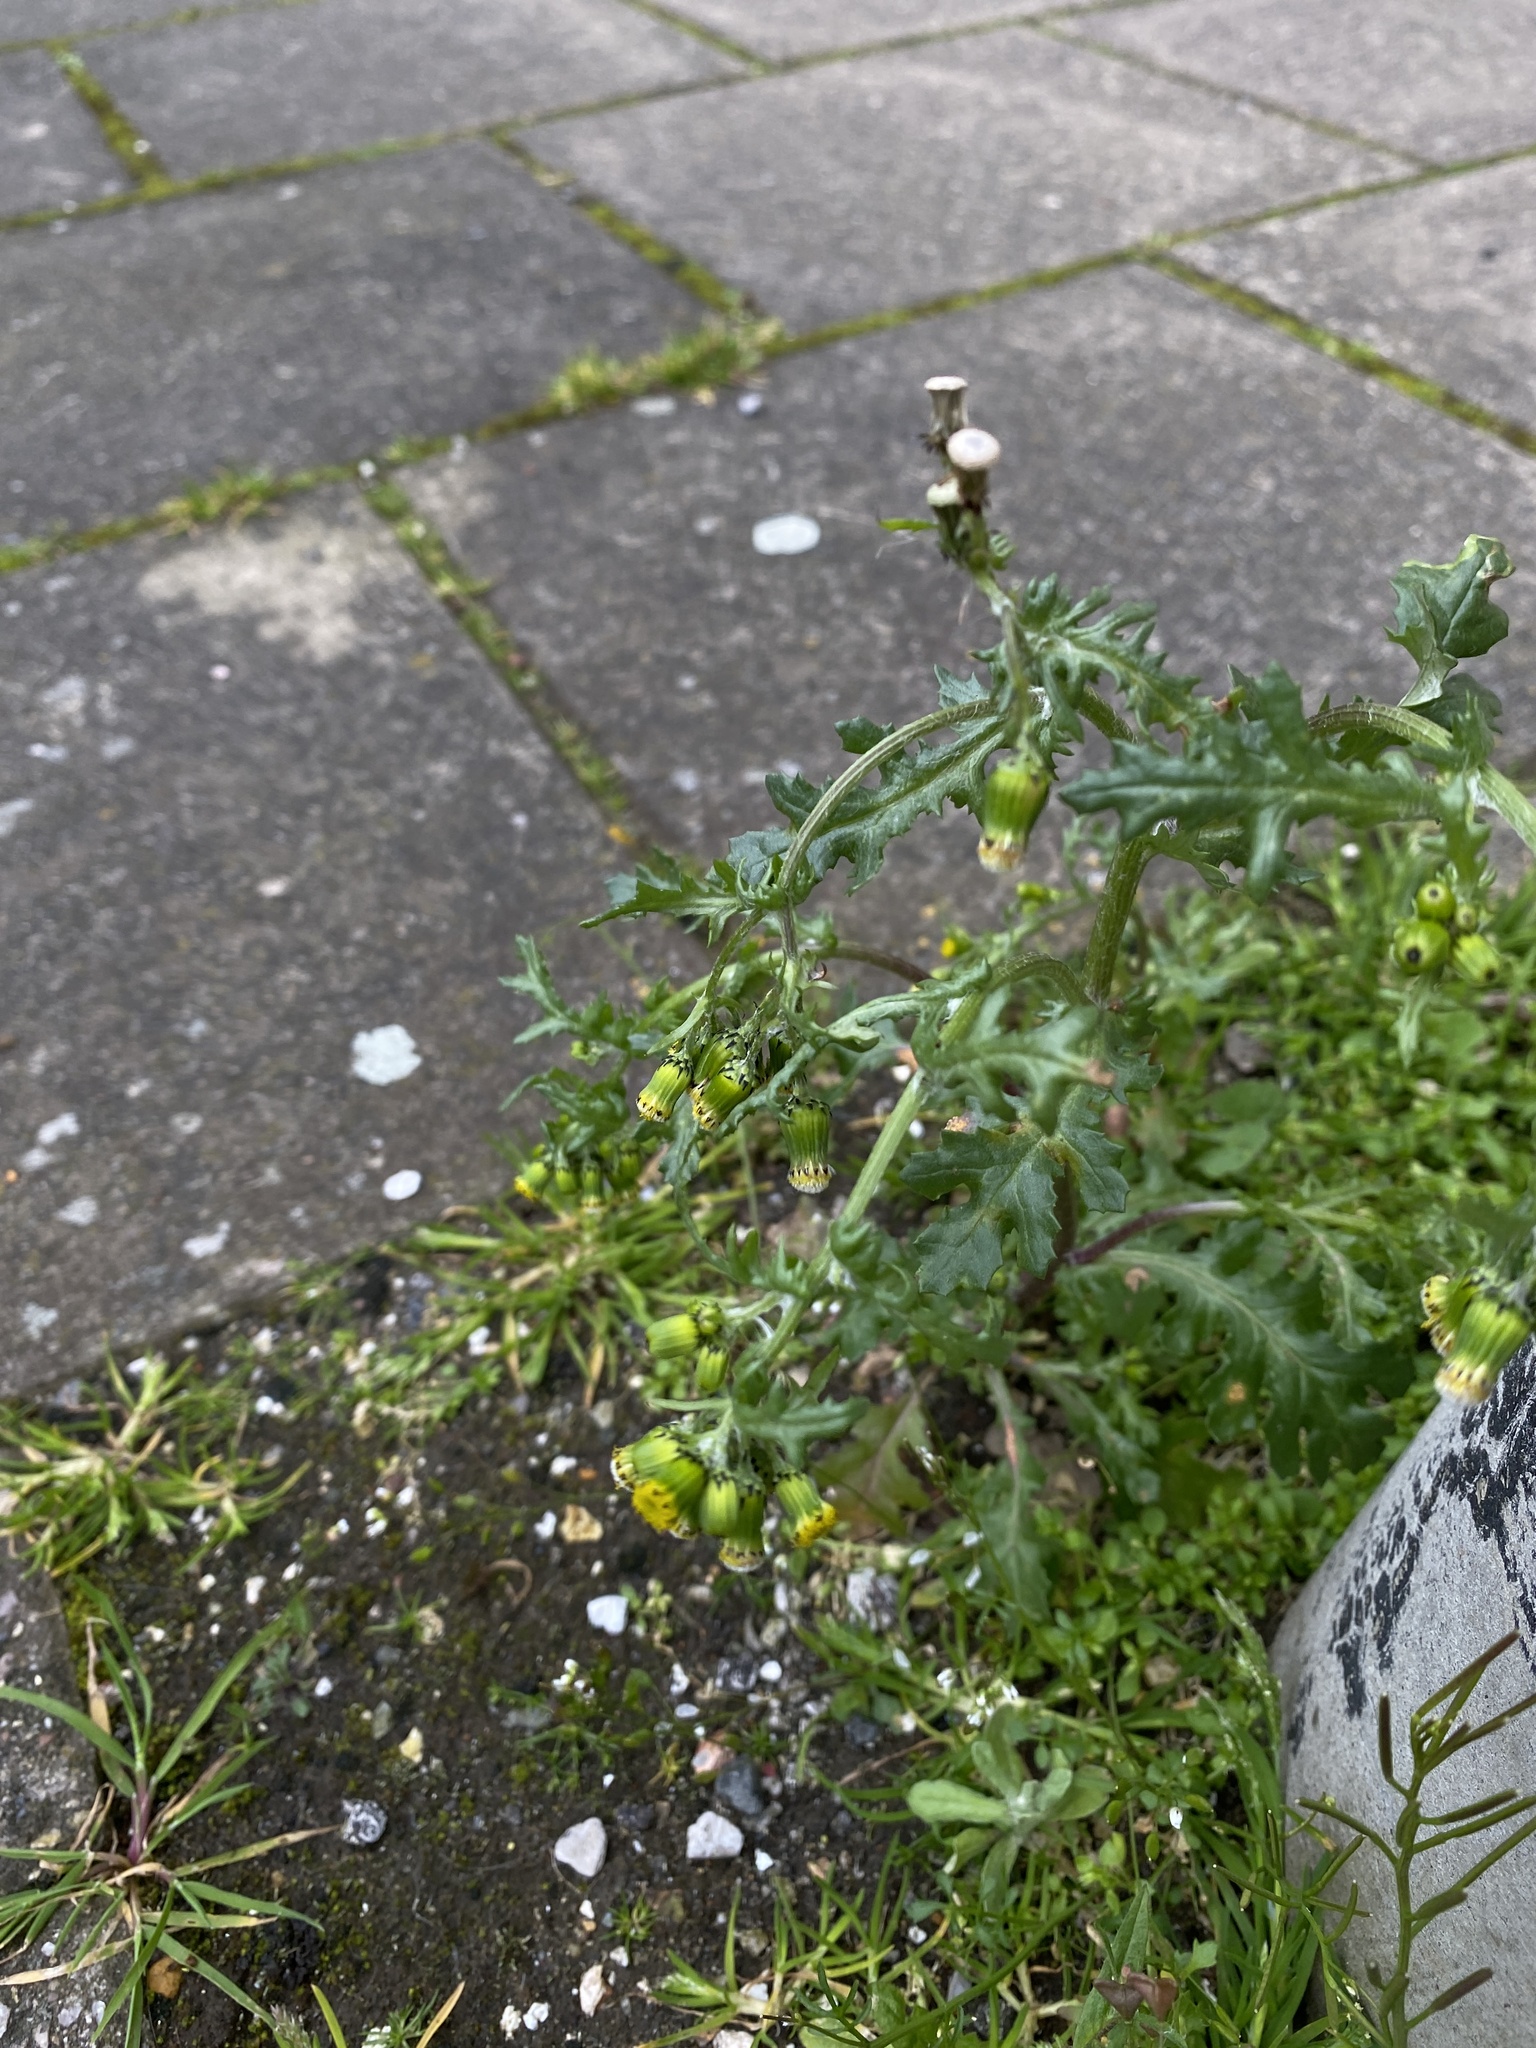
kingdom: Plantae
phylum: Tracheophyta
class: Magnoliopsida
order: Asterales
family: Asteraceae
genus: Senecio
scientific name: Senecio vulgaris
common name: Old-man-in-the-spring
